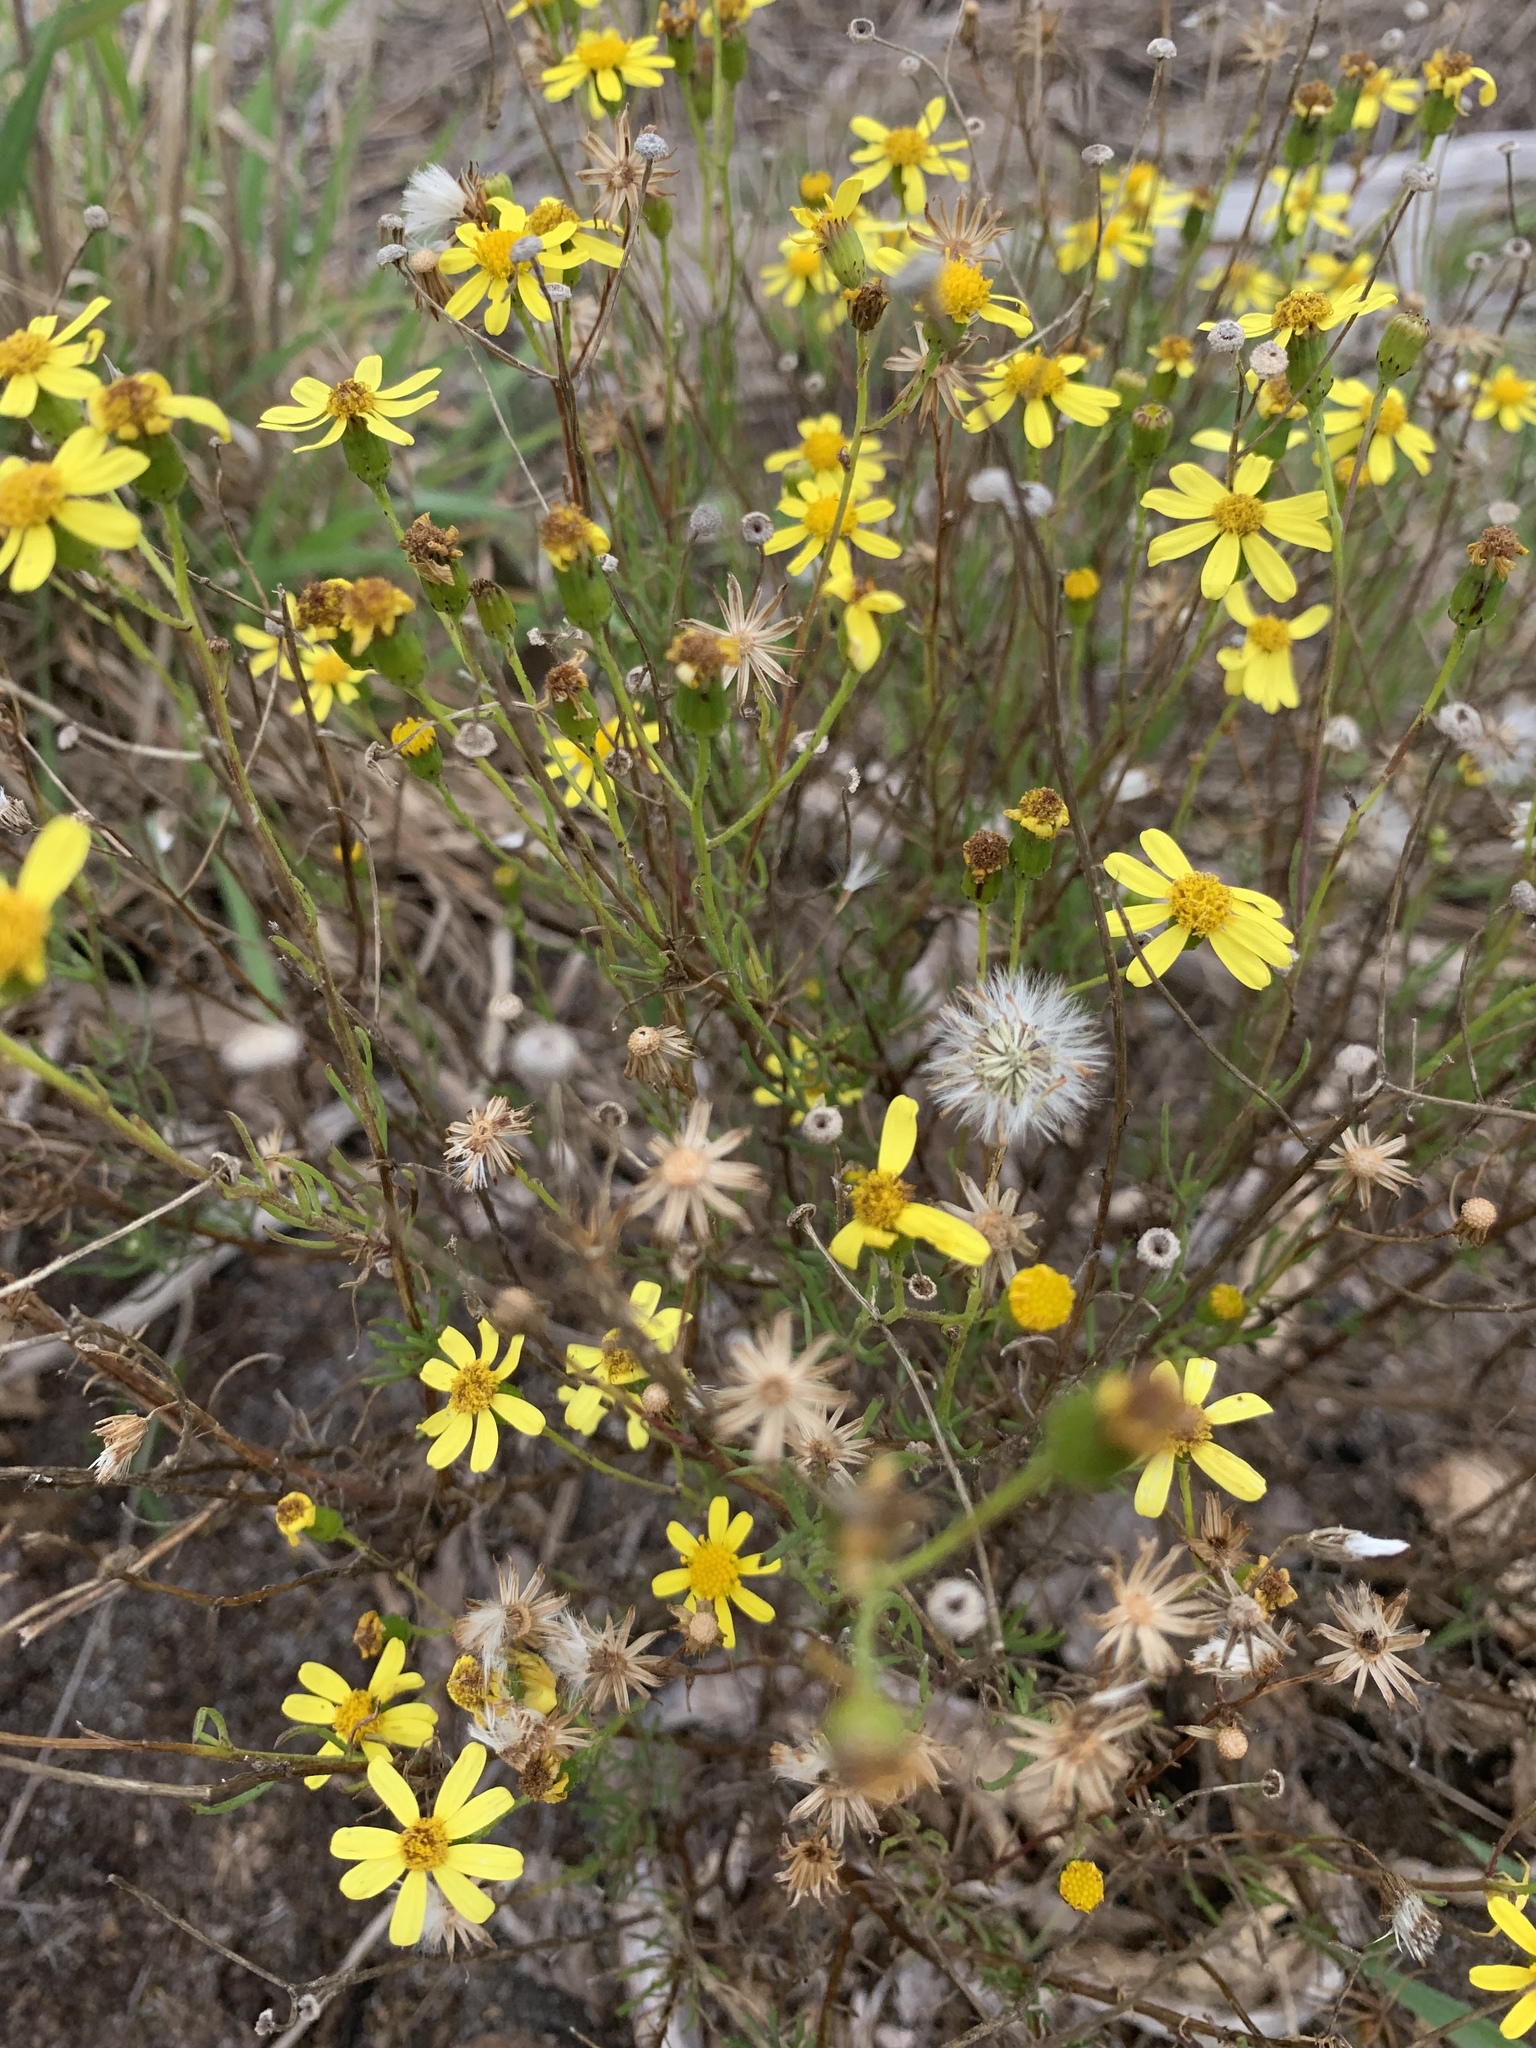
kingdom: Plantae
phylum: Tracheophyta
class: Magnoliopsida
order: Asterales
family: Asteraceae
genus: Senecio
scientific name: Senecio burchellii
